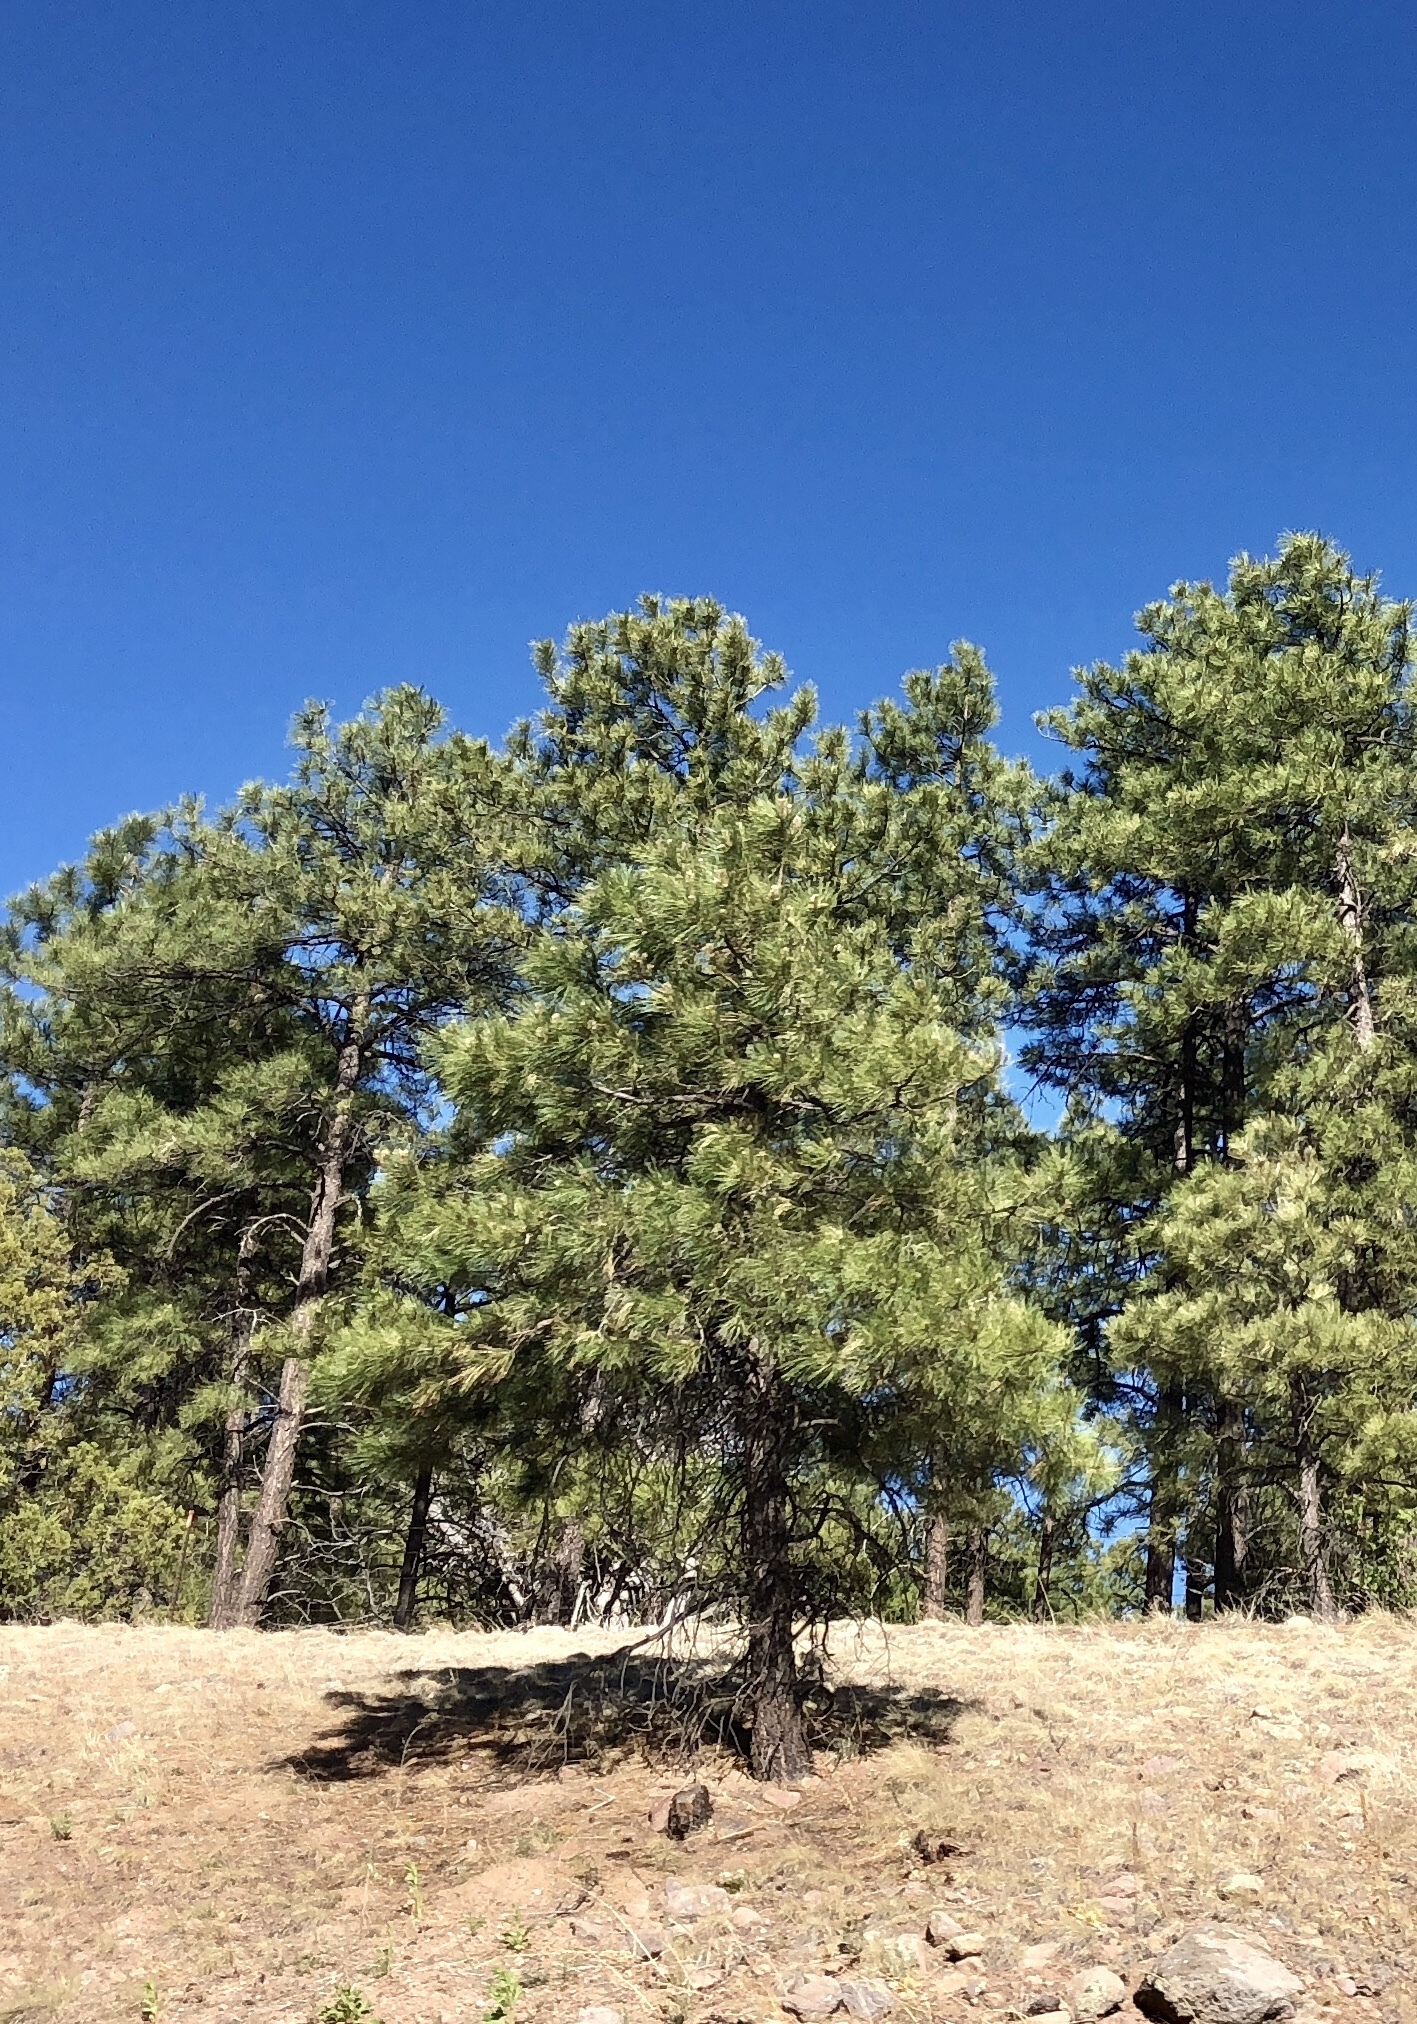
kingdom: Plantae
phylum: Tracheophyta
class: Pinopsida
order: Pinales
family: Pinaceae
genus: Pinus
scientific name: Pinus ponderosa
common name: Western yellow-pine
